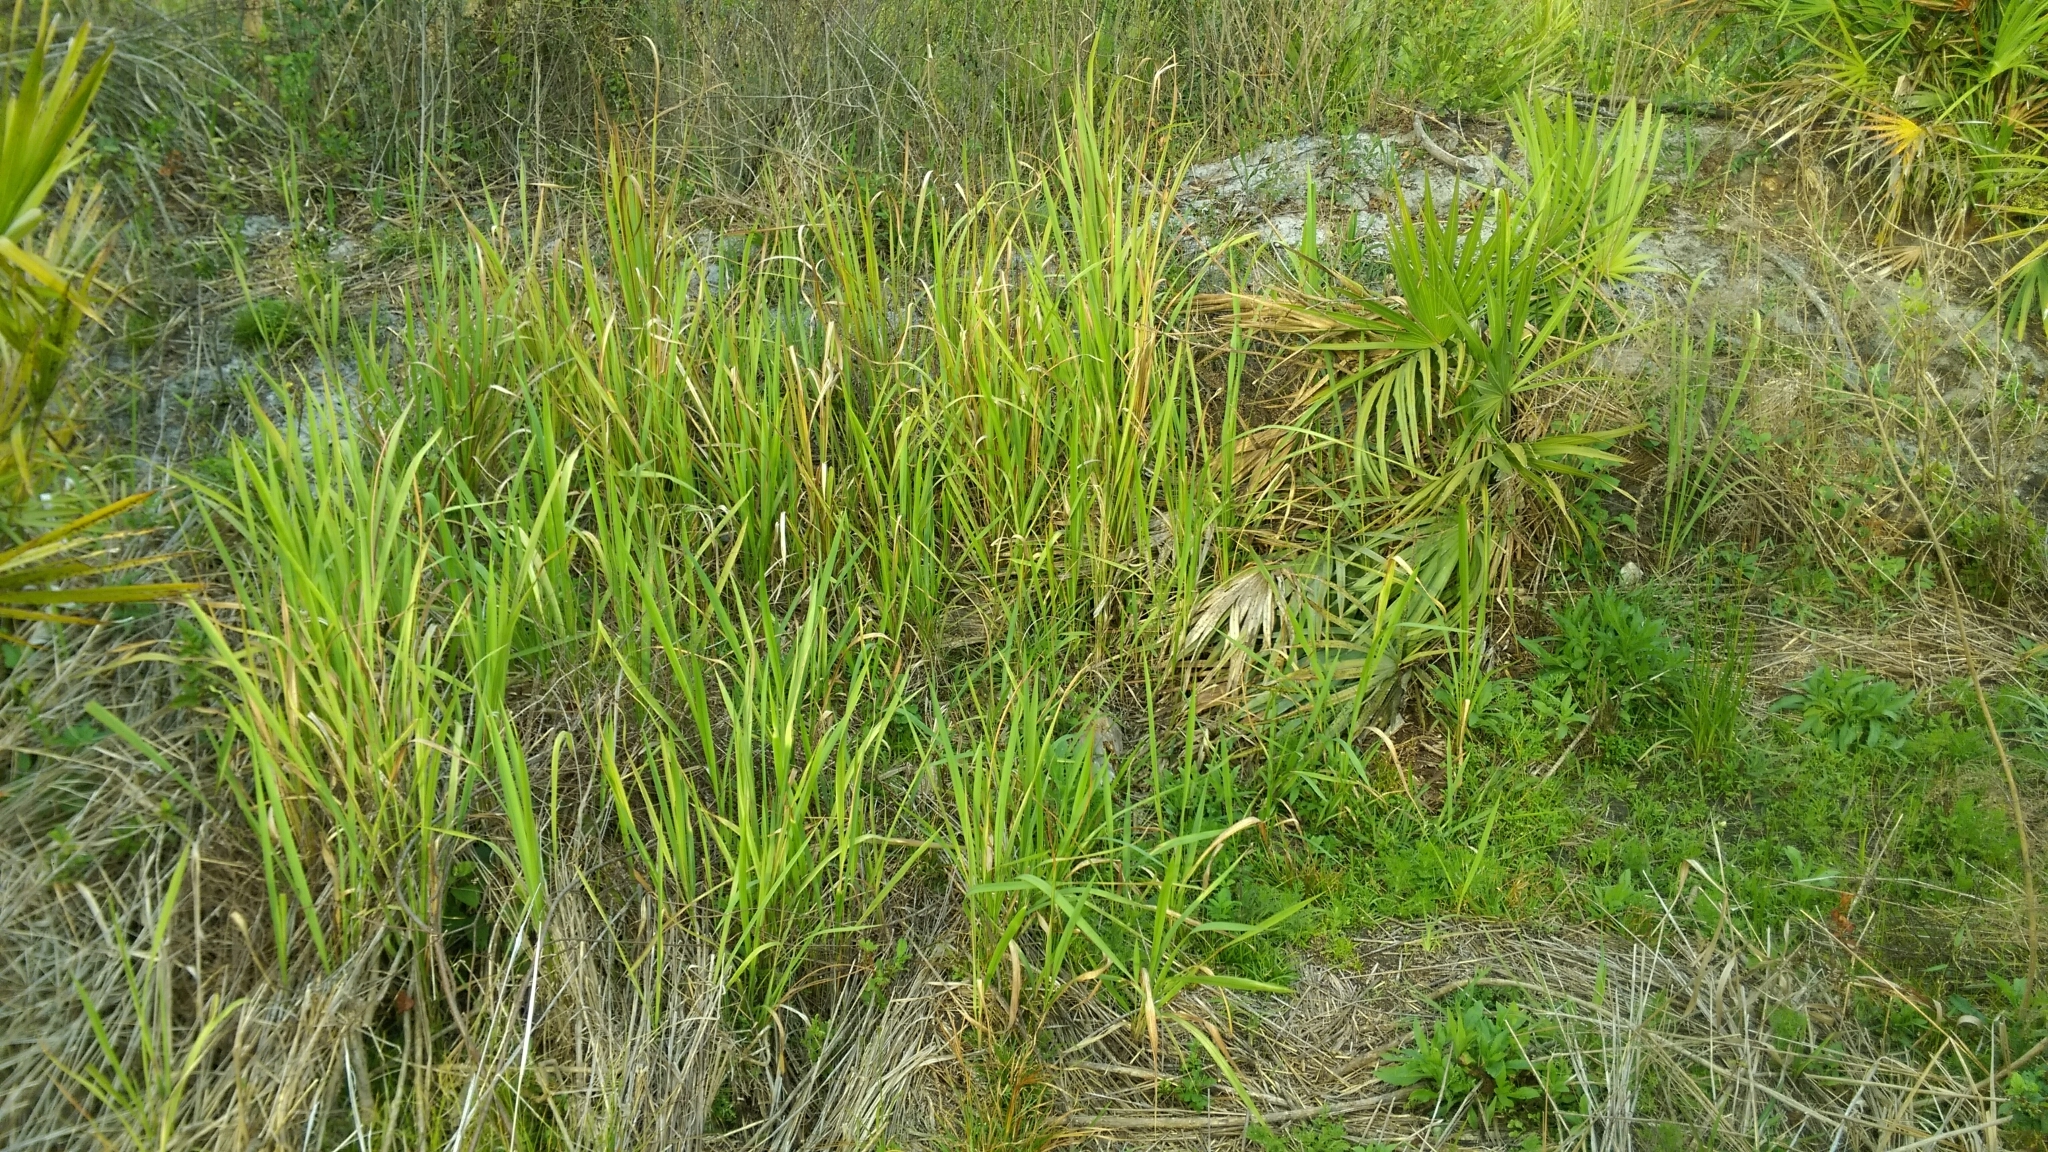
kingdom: Plantae
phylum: Tracheophyta
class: Liliopsida
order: Poales
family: Poaceae
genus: Imperata
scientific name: Imperata cylindrica
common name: Cogongrass
